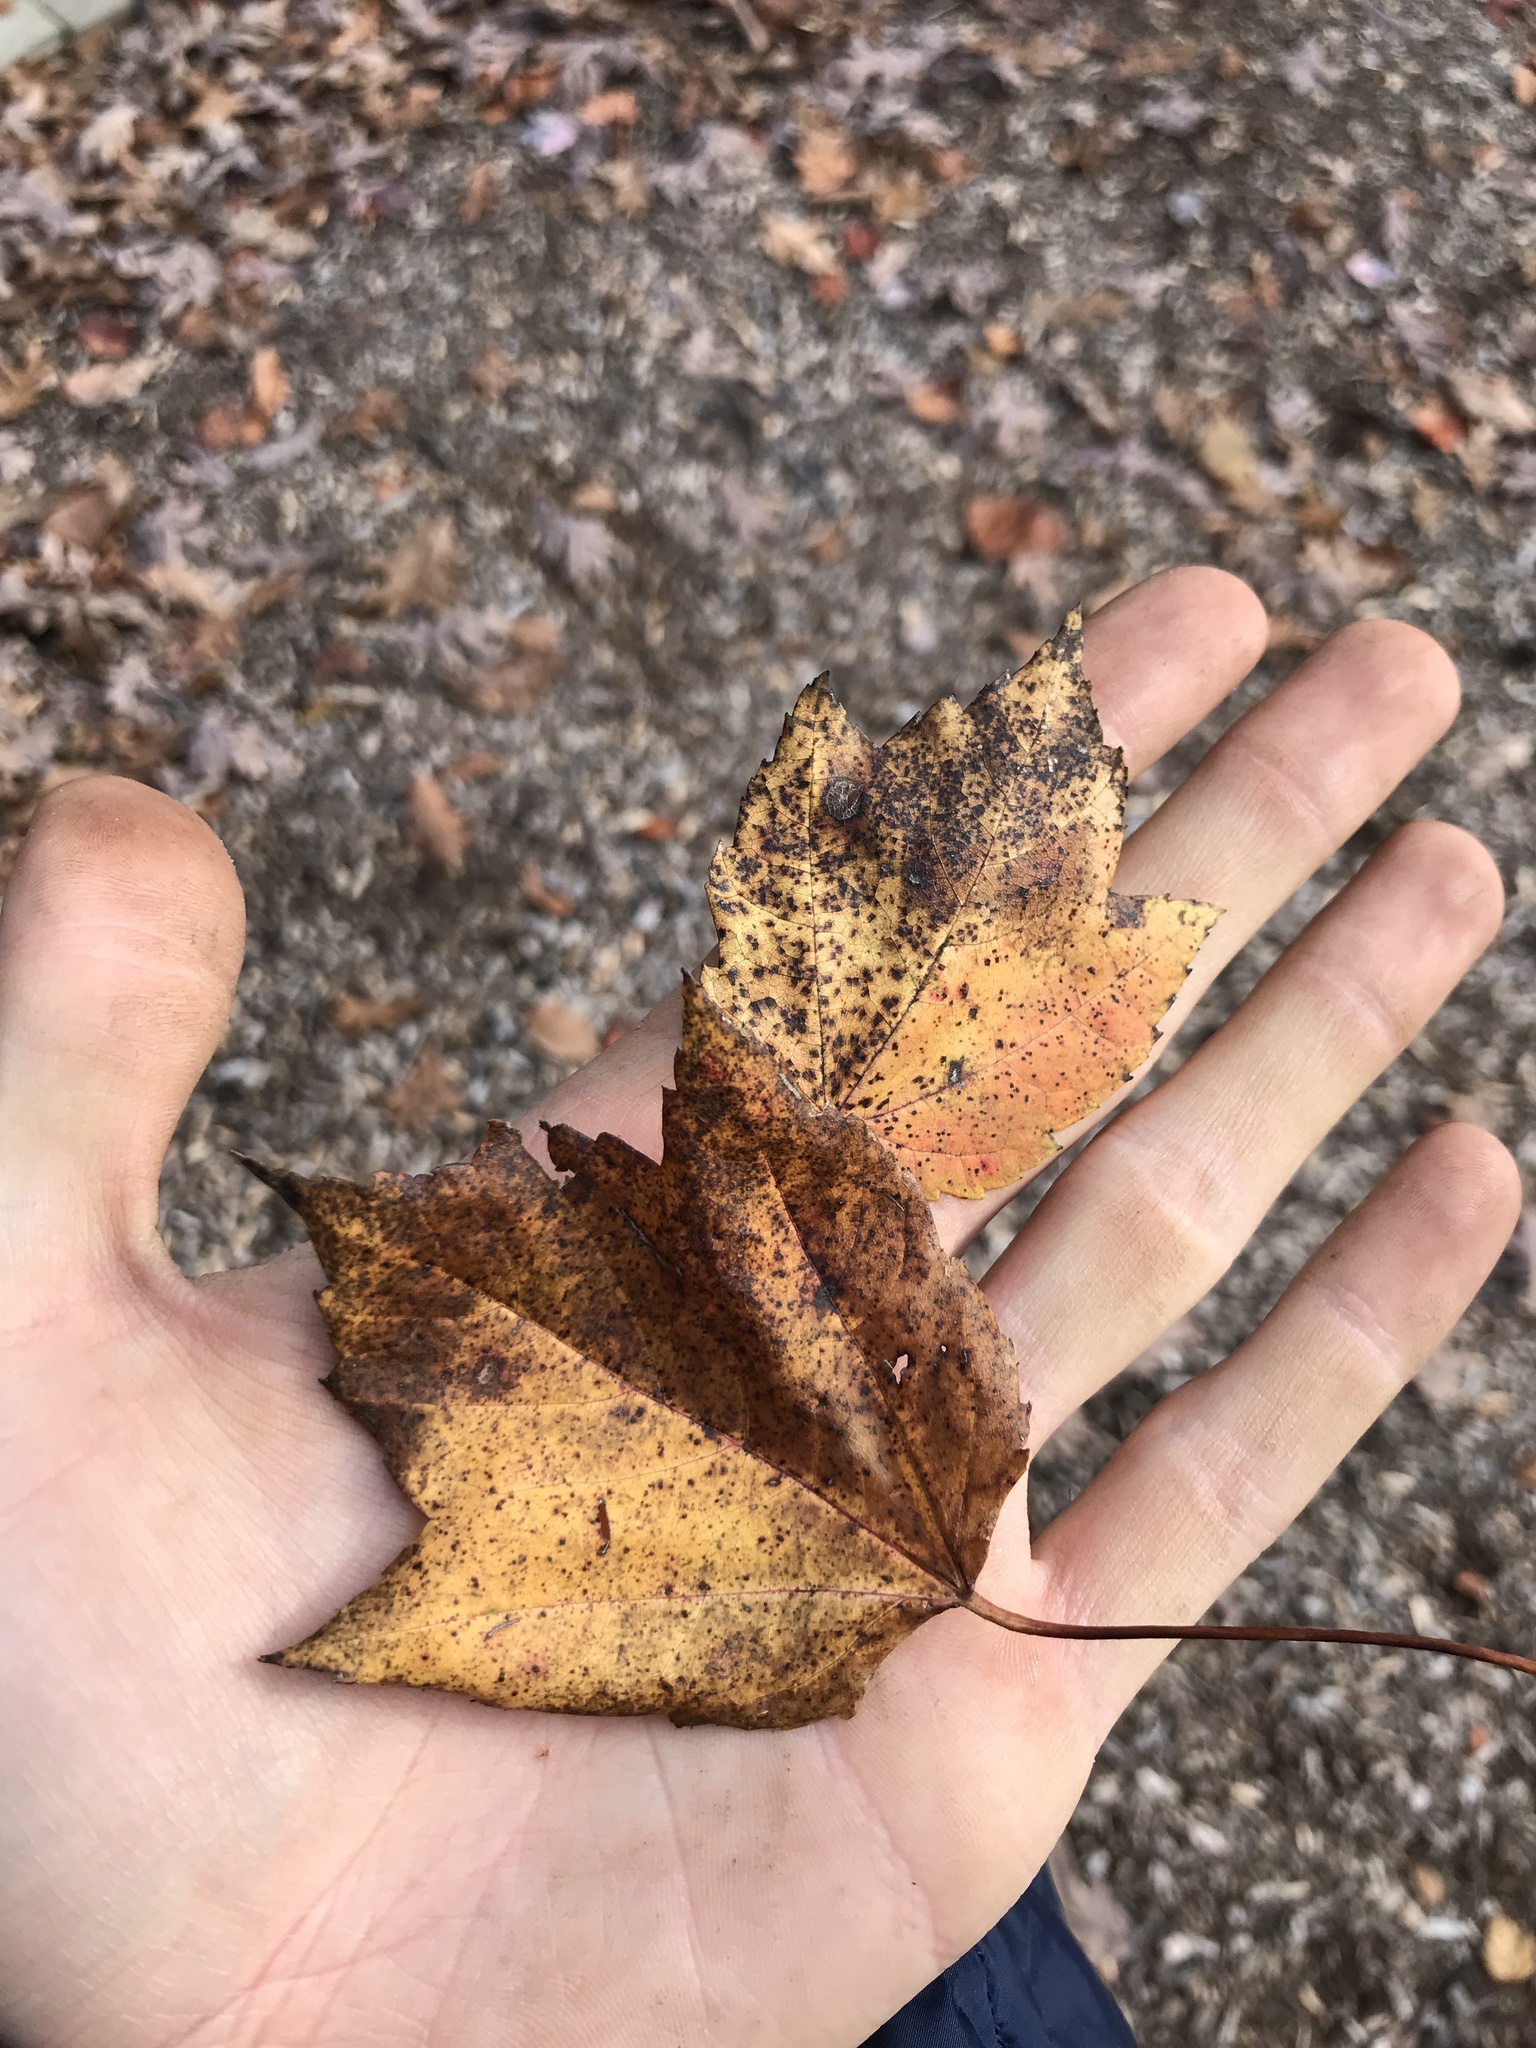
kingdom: Plantae
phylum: Tracheophyta
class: Magnoliopsida
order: Sapindales
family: Sapindaceae
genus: Acer
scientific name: Acer rubrum
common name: Red maple
